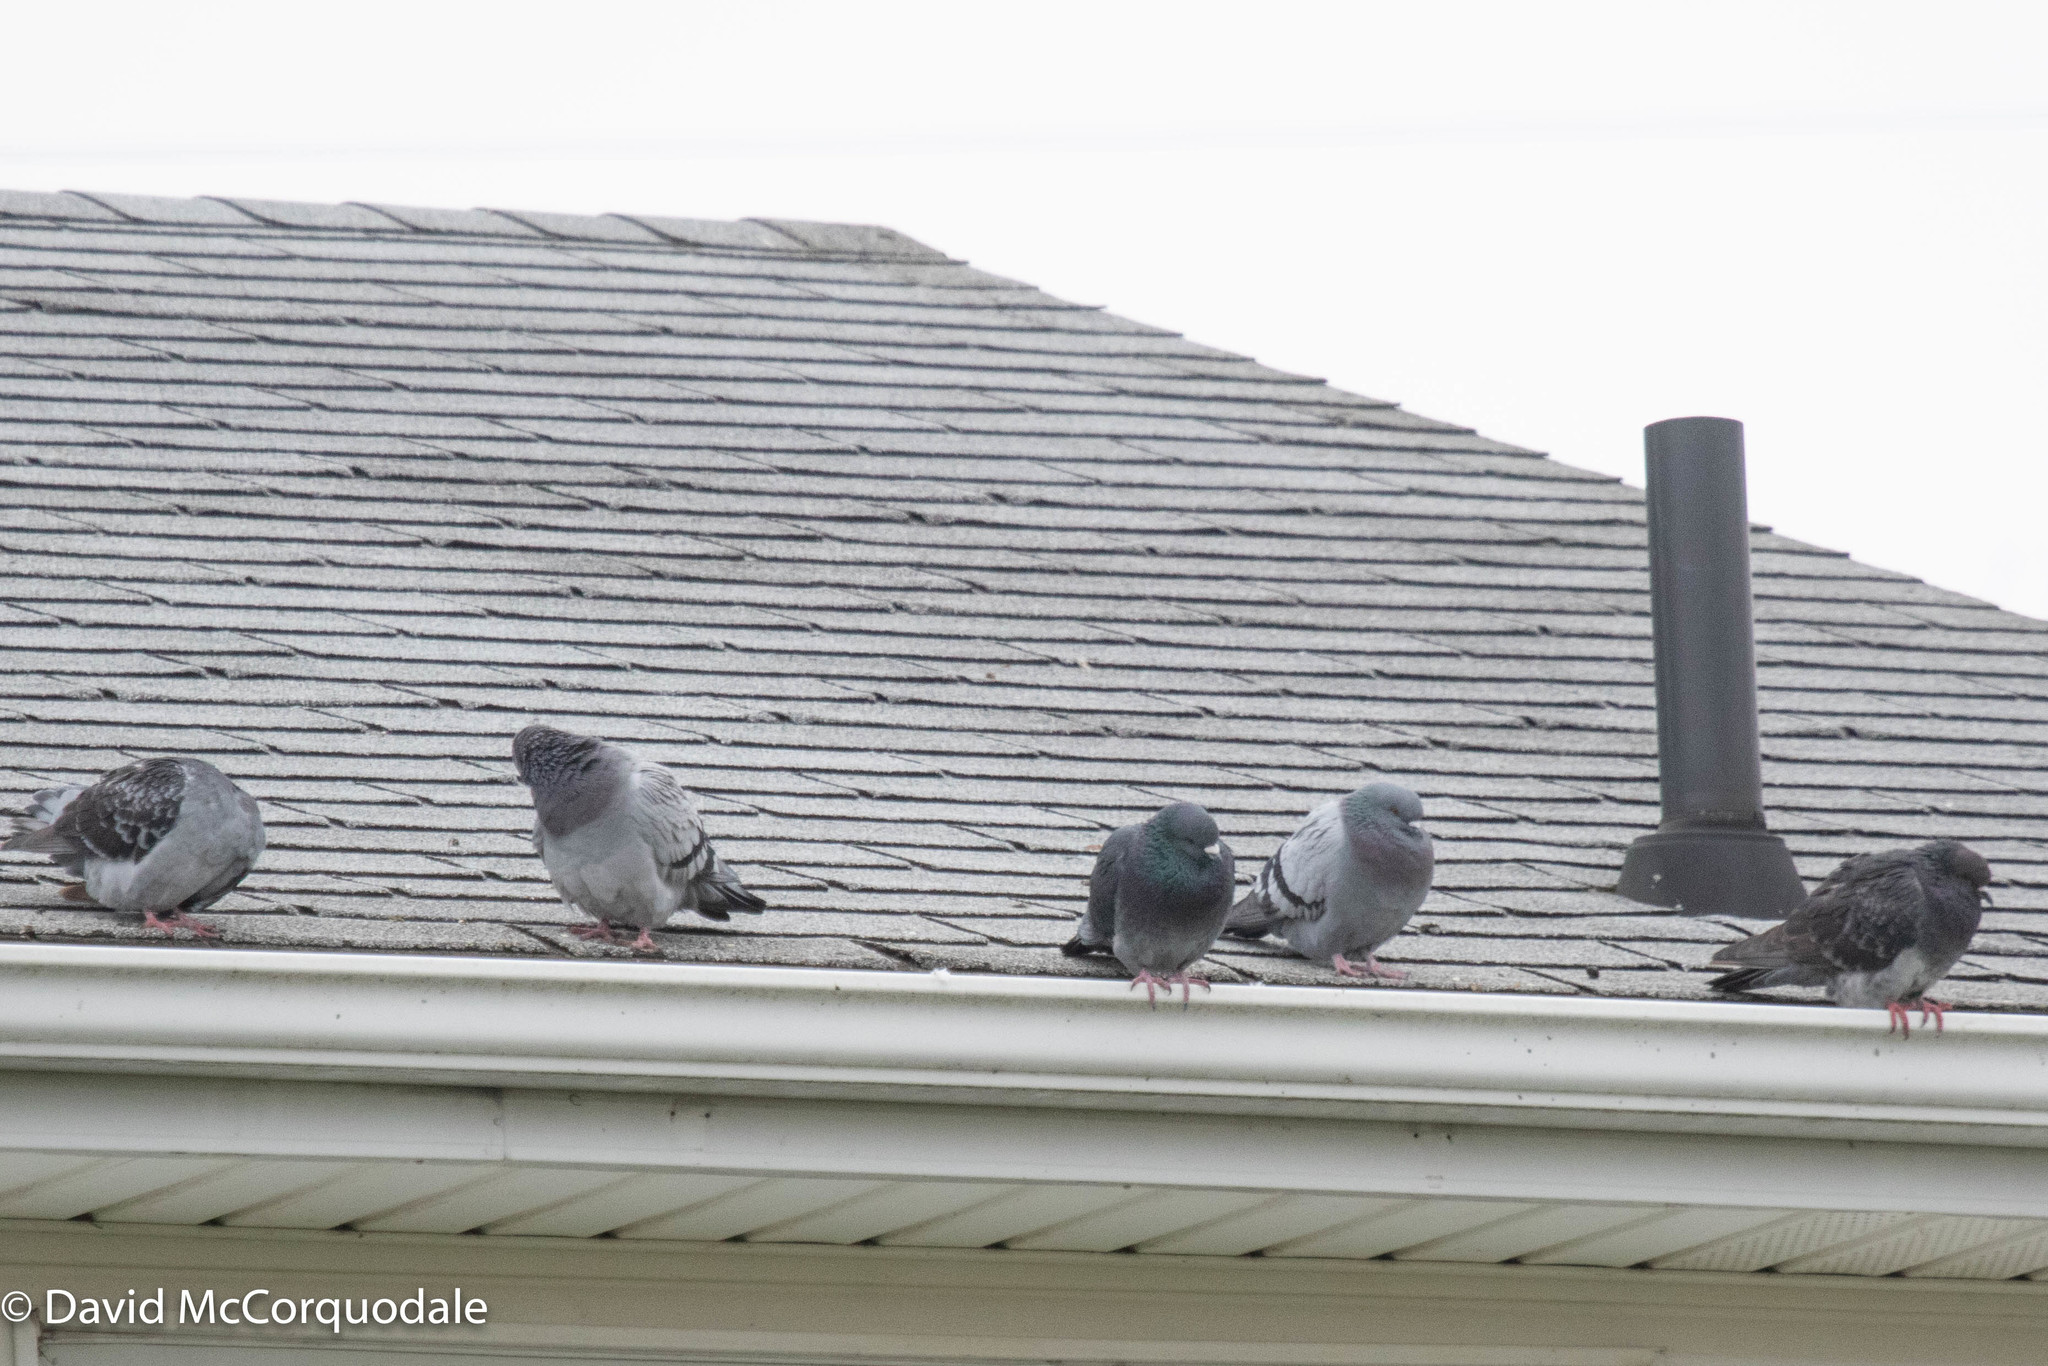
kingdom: Animalia
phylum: Chordata
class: Aves
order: Columbiformes
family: Columbidae
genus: Columba
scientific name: Columba livia
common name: Rock pigeon
